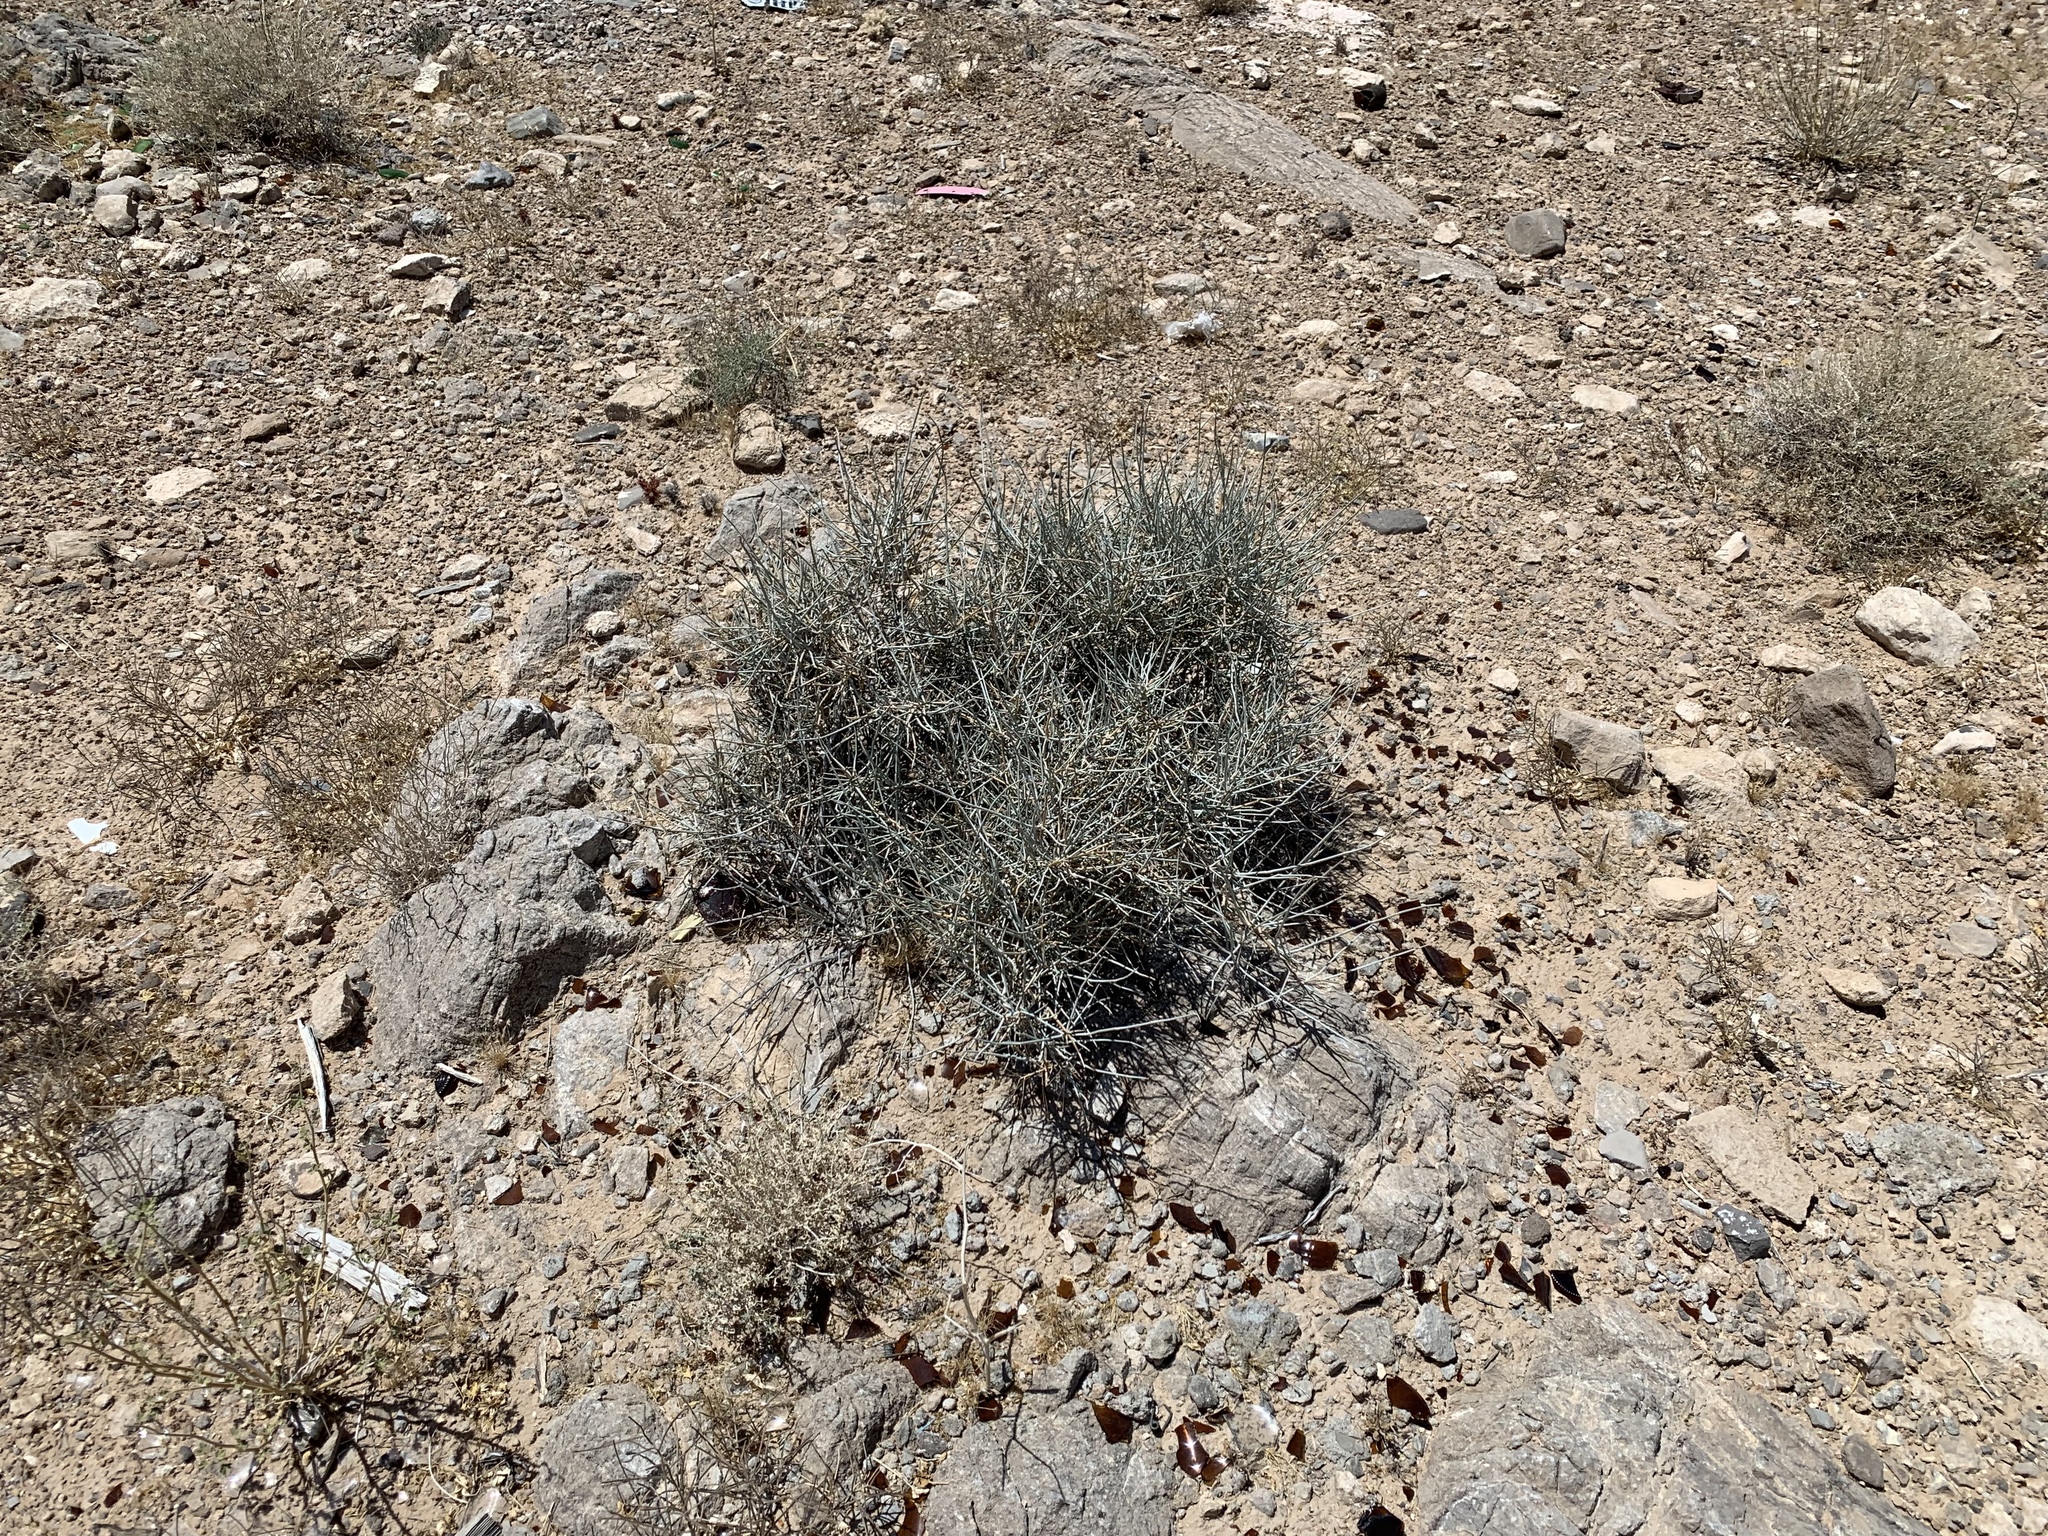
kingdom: Plantae
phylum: Tracheophyta
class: Gnetopsida
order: Ephedrales
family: Ephedraceae
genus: Ephedra
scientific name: Ephedra nevadensis
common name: Gray ephedra
